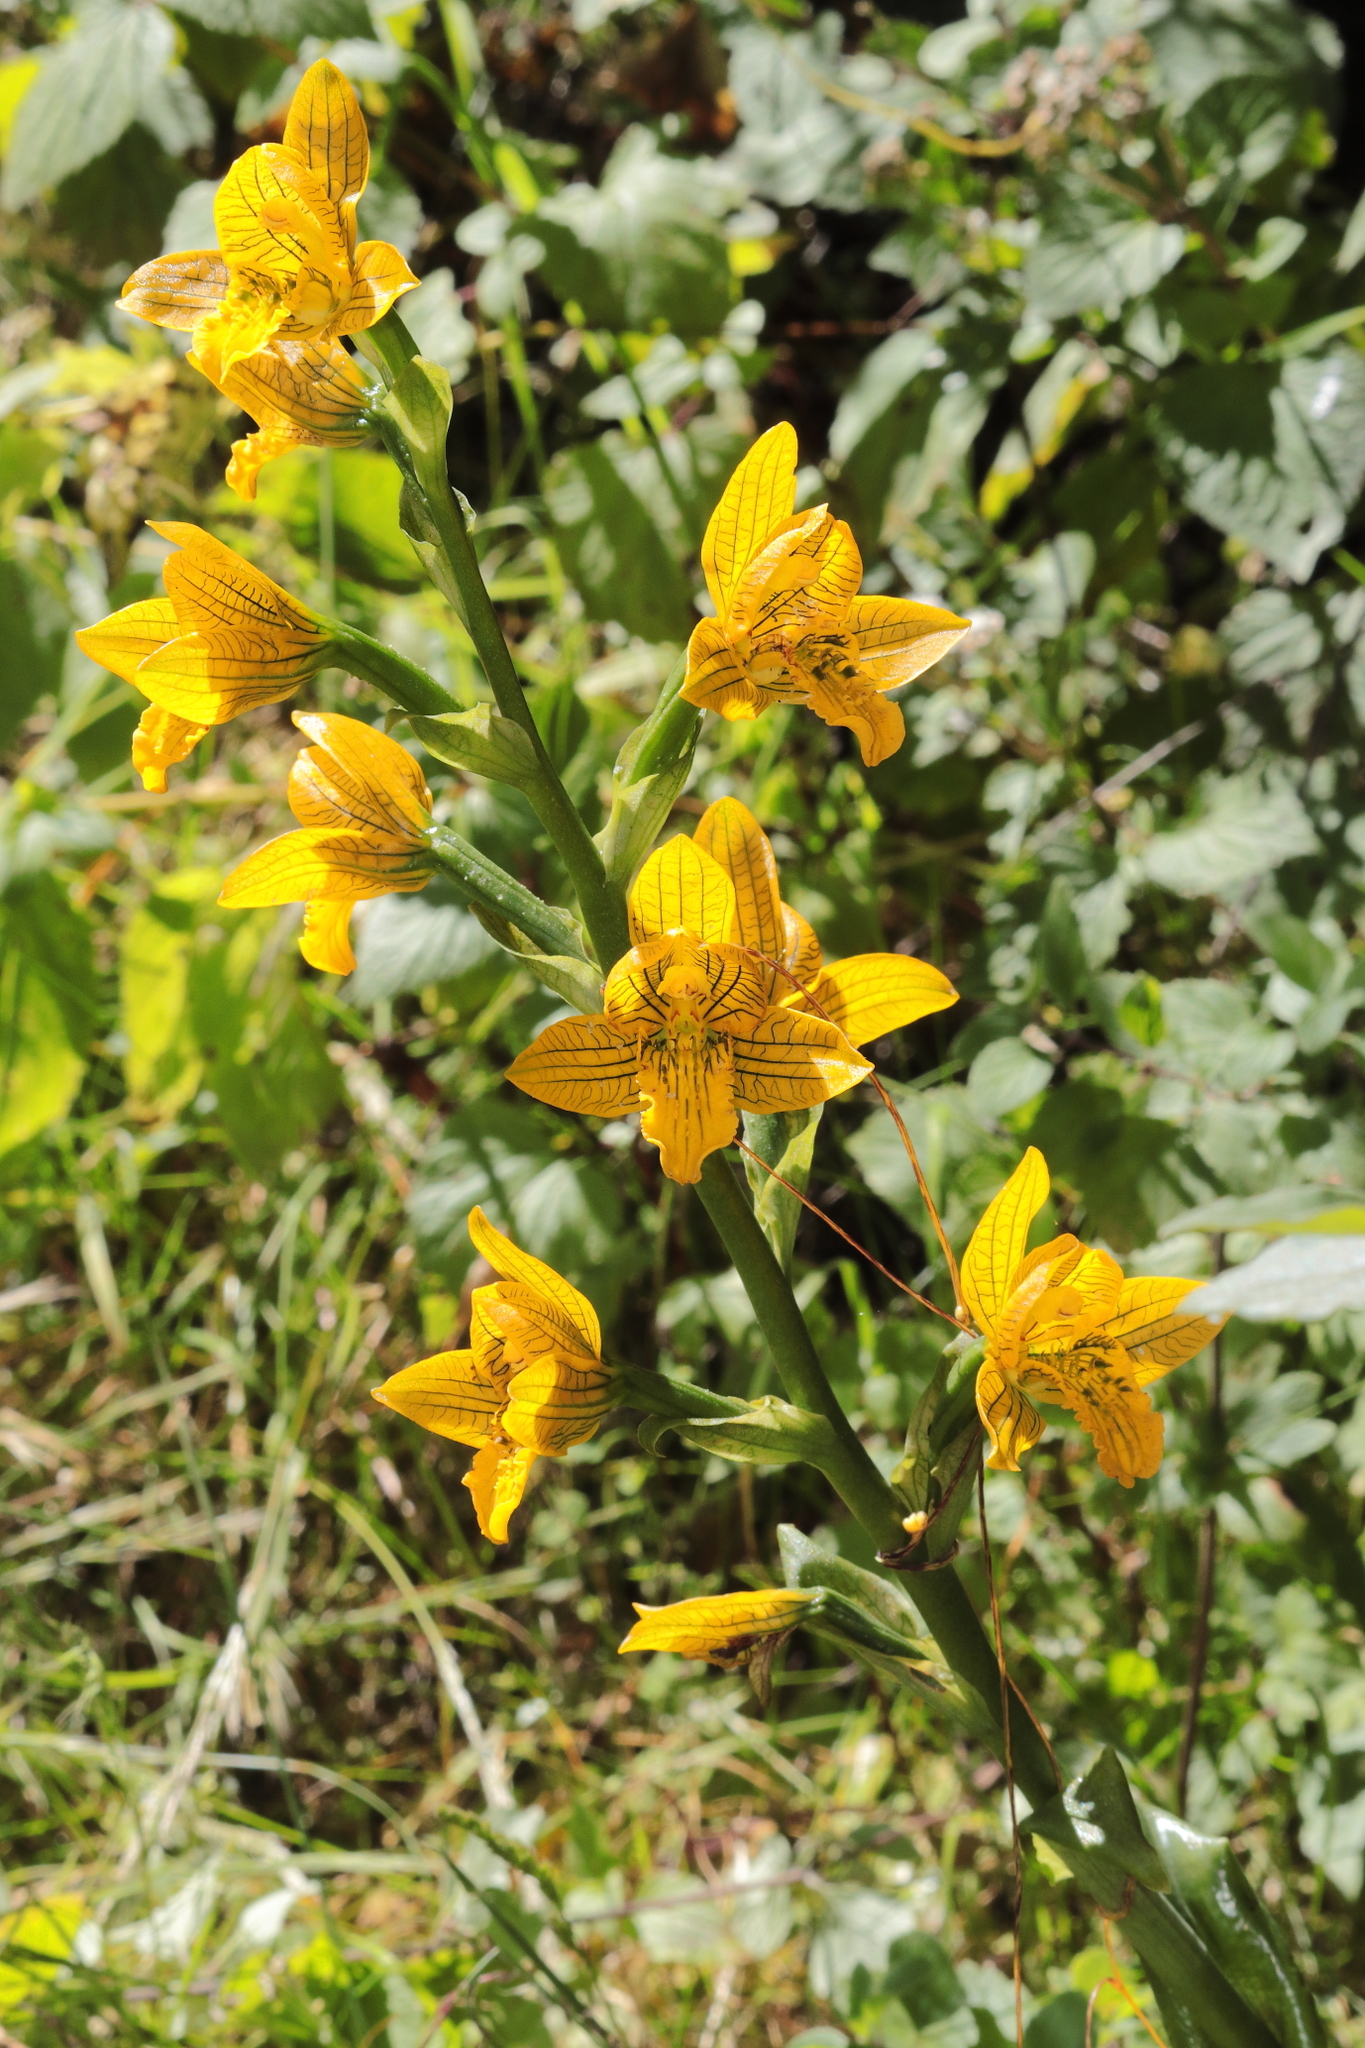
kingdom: Plantae
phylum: Tracheophyta
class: Liliopsida
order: Asparagales
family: Orchidaceae
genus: Chloraea
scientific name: Chloraea pavonii
